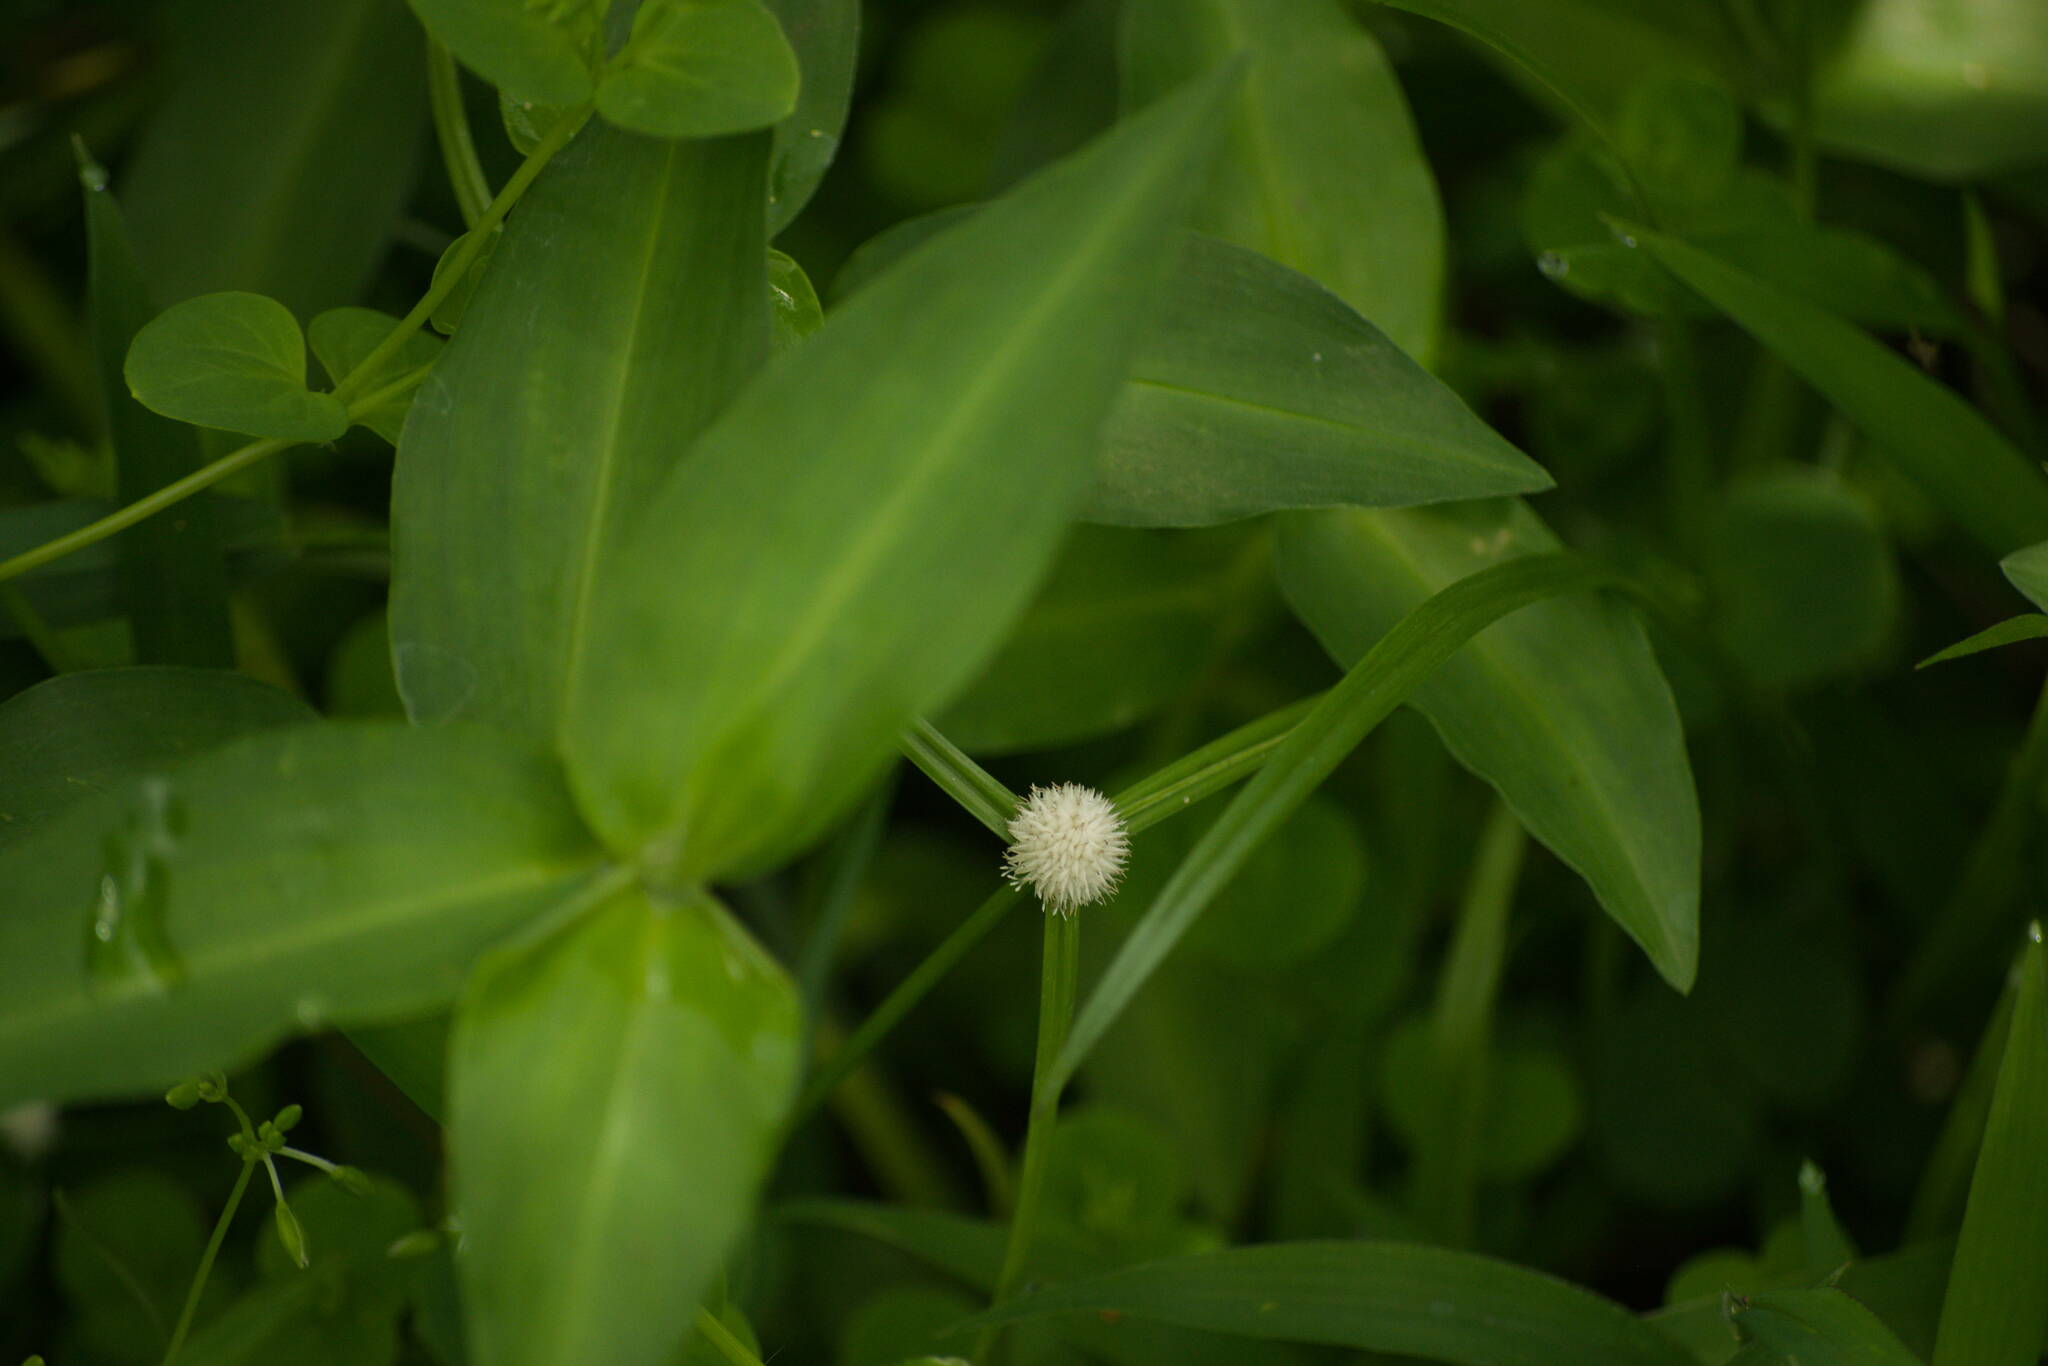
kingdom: Plantae
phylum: Tracheophyta
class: Liliopsida
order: Poales
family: Cyperaceae
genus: Cyperus
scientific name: Cyperus mindorensis
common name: Flatsedge
